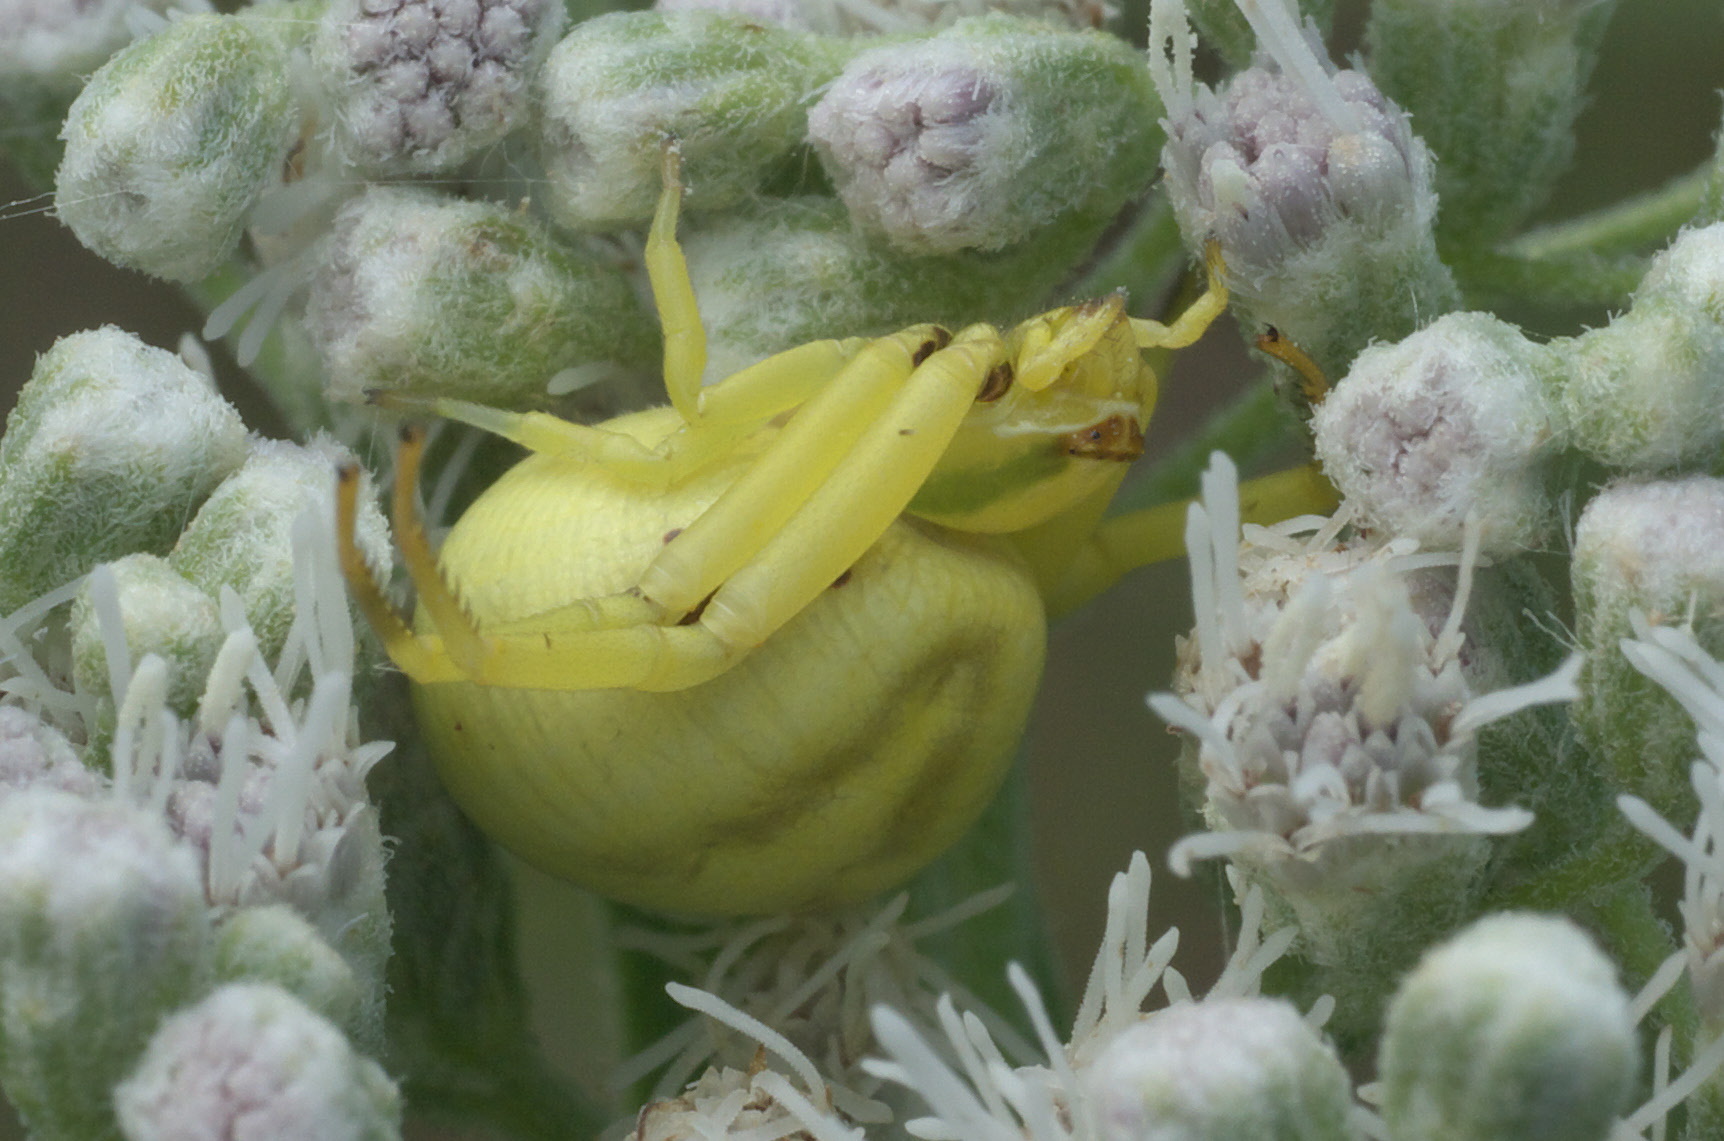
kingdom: Animalia
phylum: Arthropoda
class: Arachnida
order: Araneae
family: Thomisidae
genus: Misumenoides
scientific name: Misumenoides formosipes
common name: White-banded crab spider
